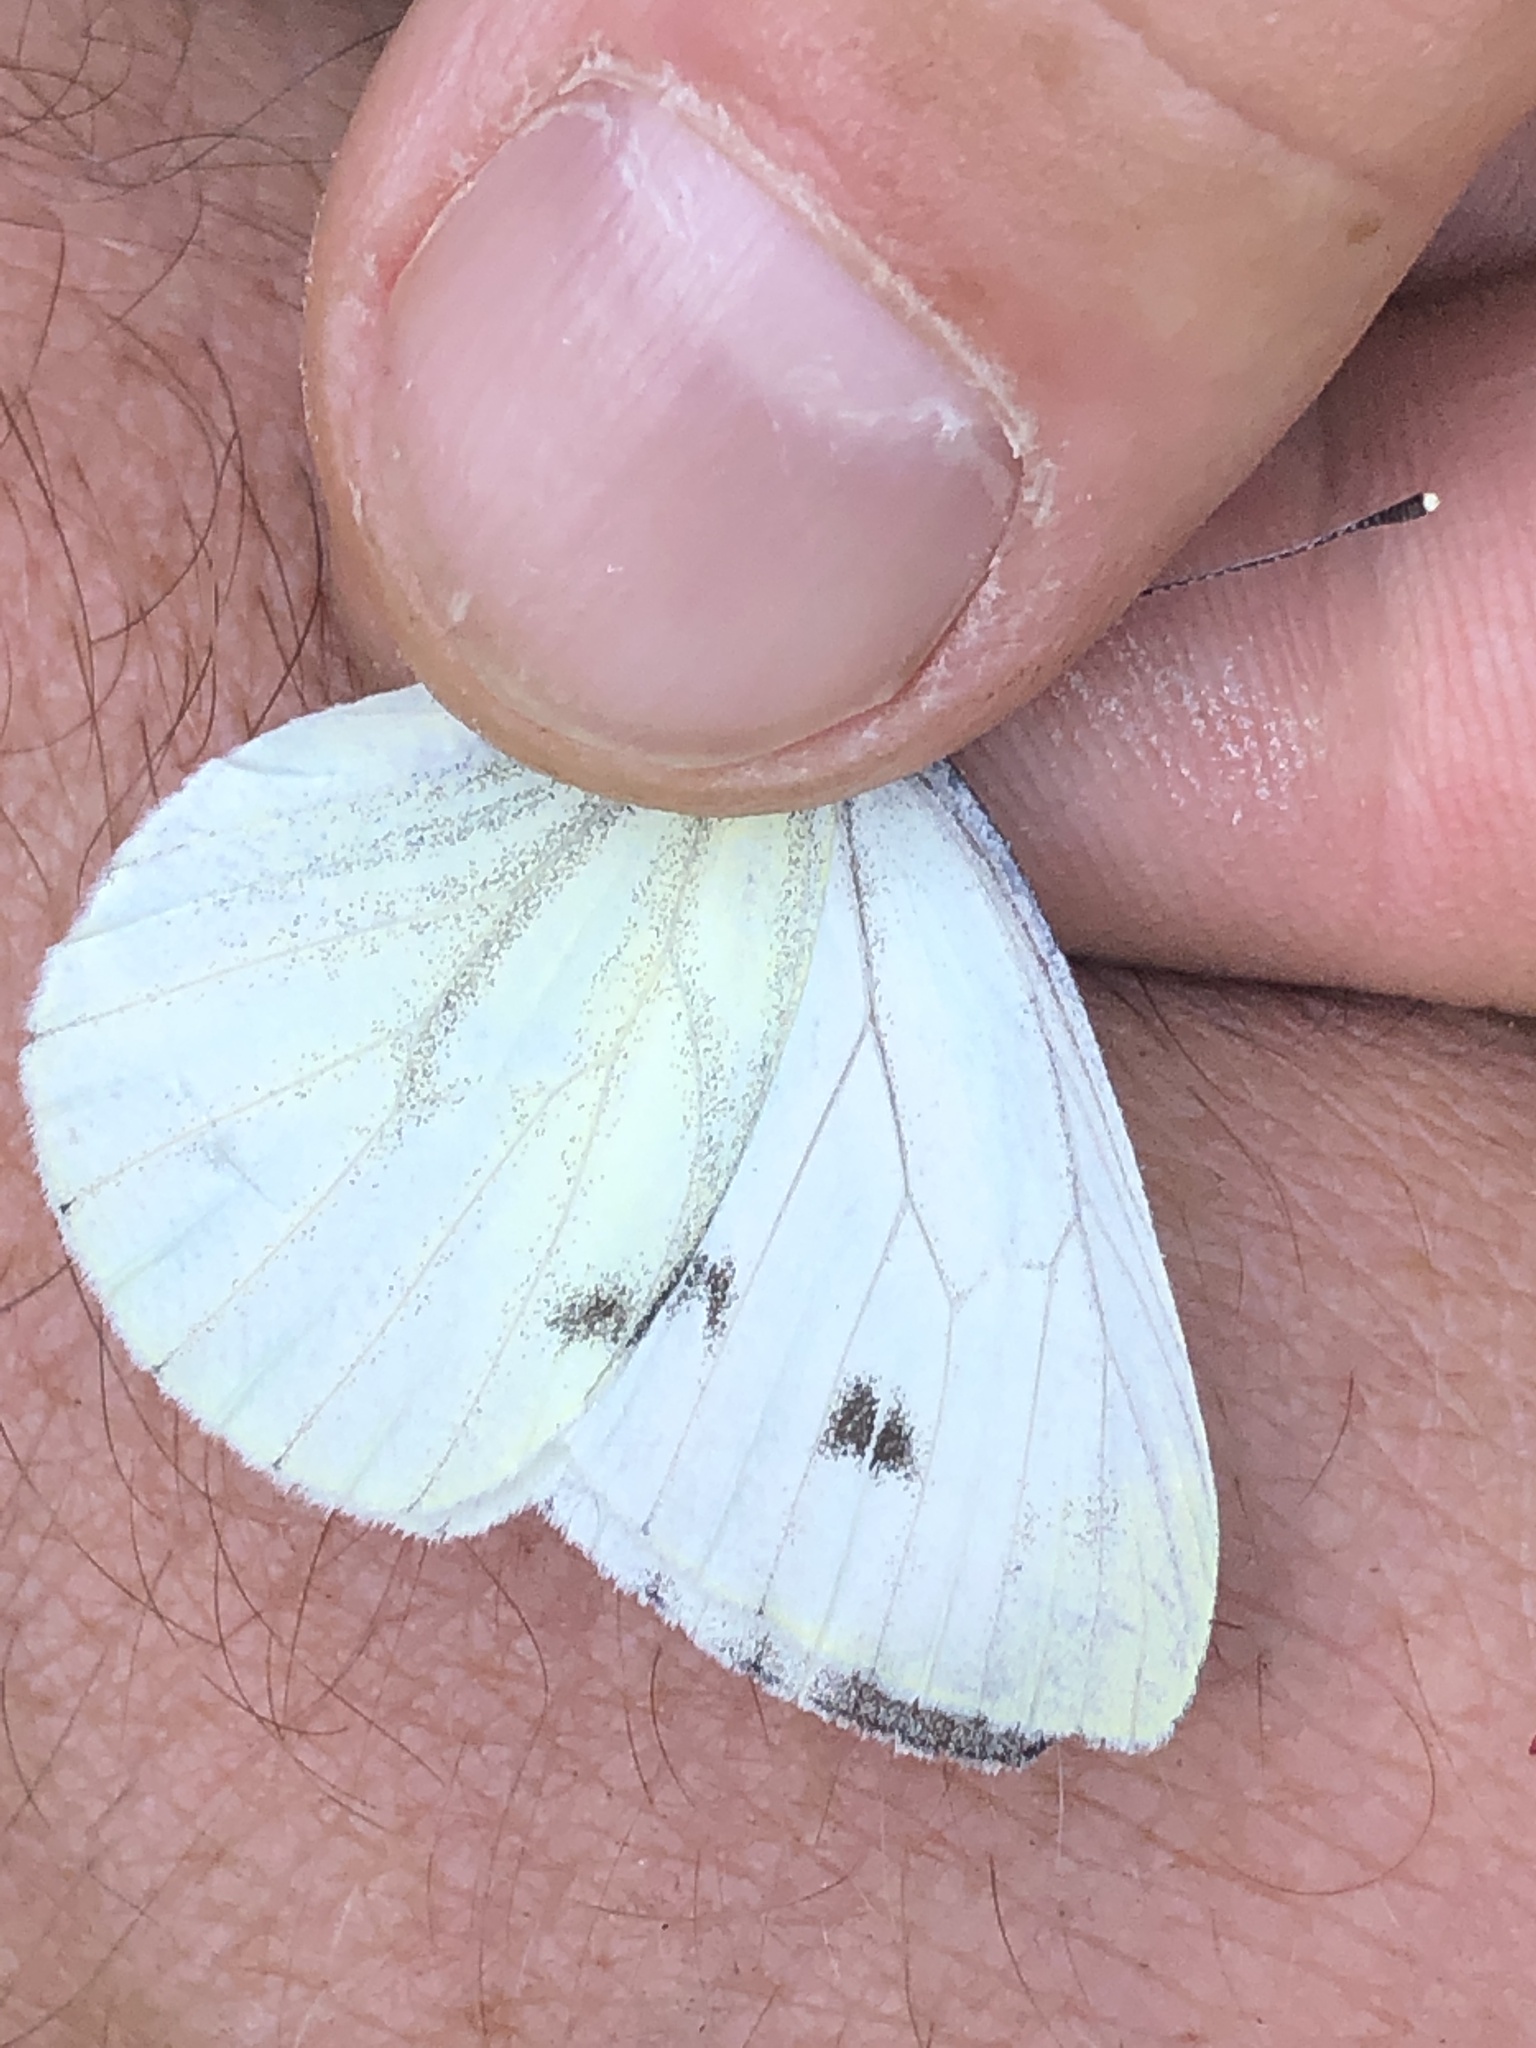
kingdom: Animalia
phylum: Arthropoda
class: Insecta
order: Lepidoptera
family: Pieridae
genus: Pieris
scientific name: Pieris napi
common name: Green-veined white
